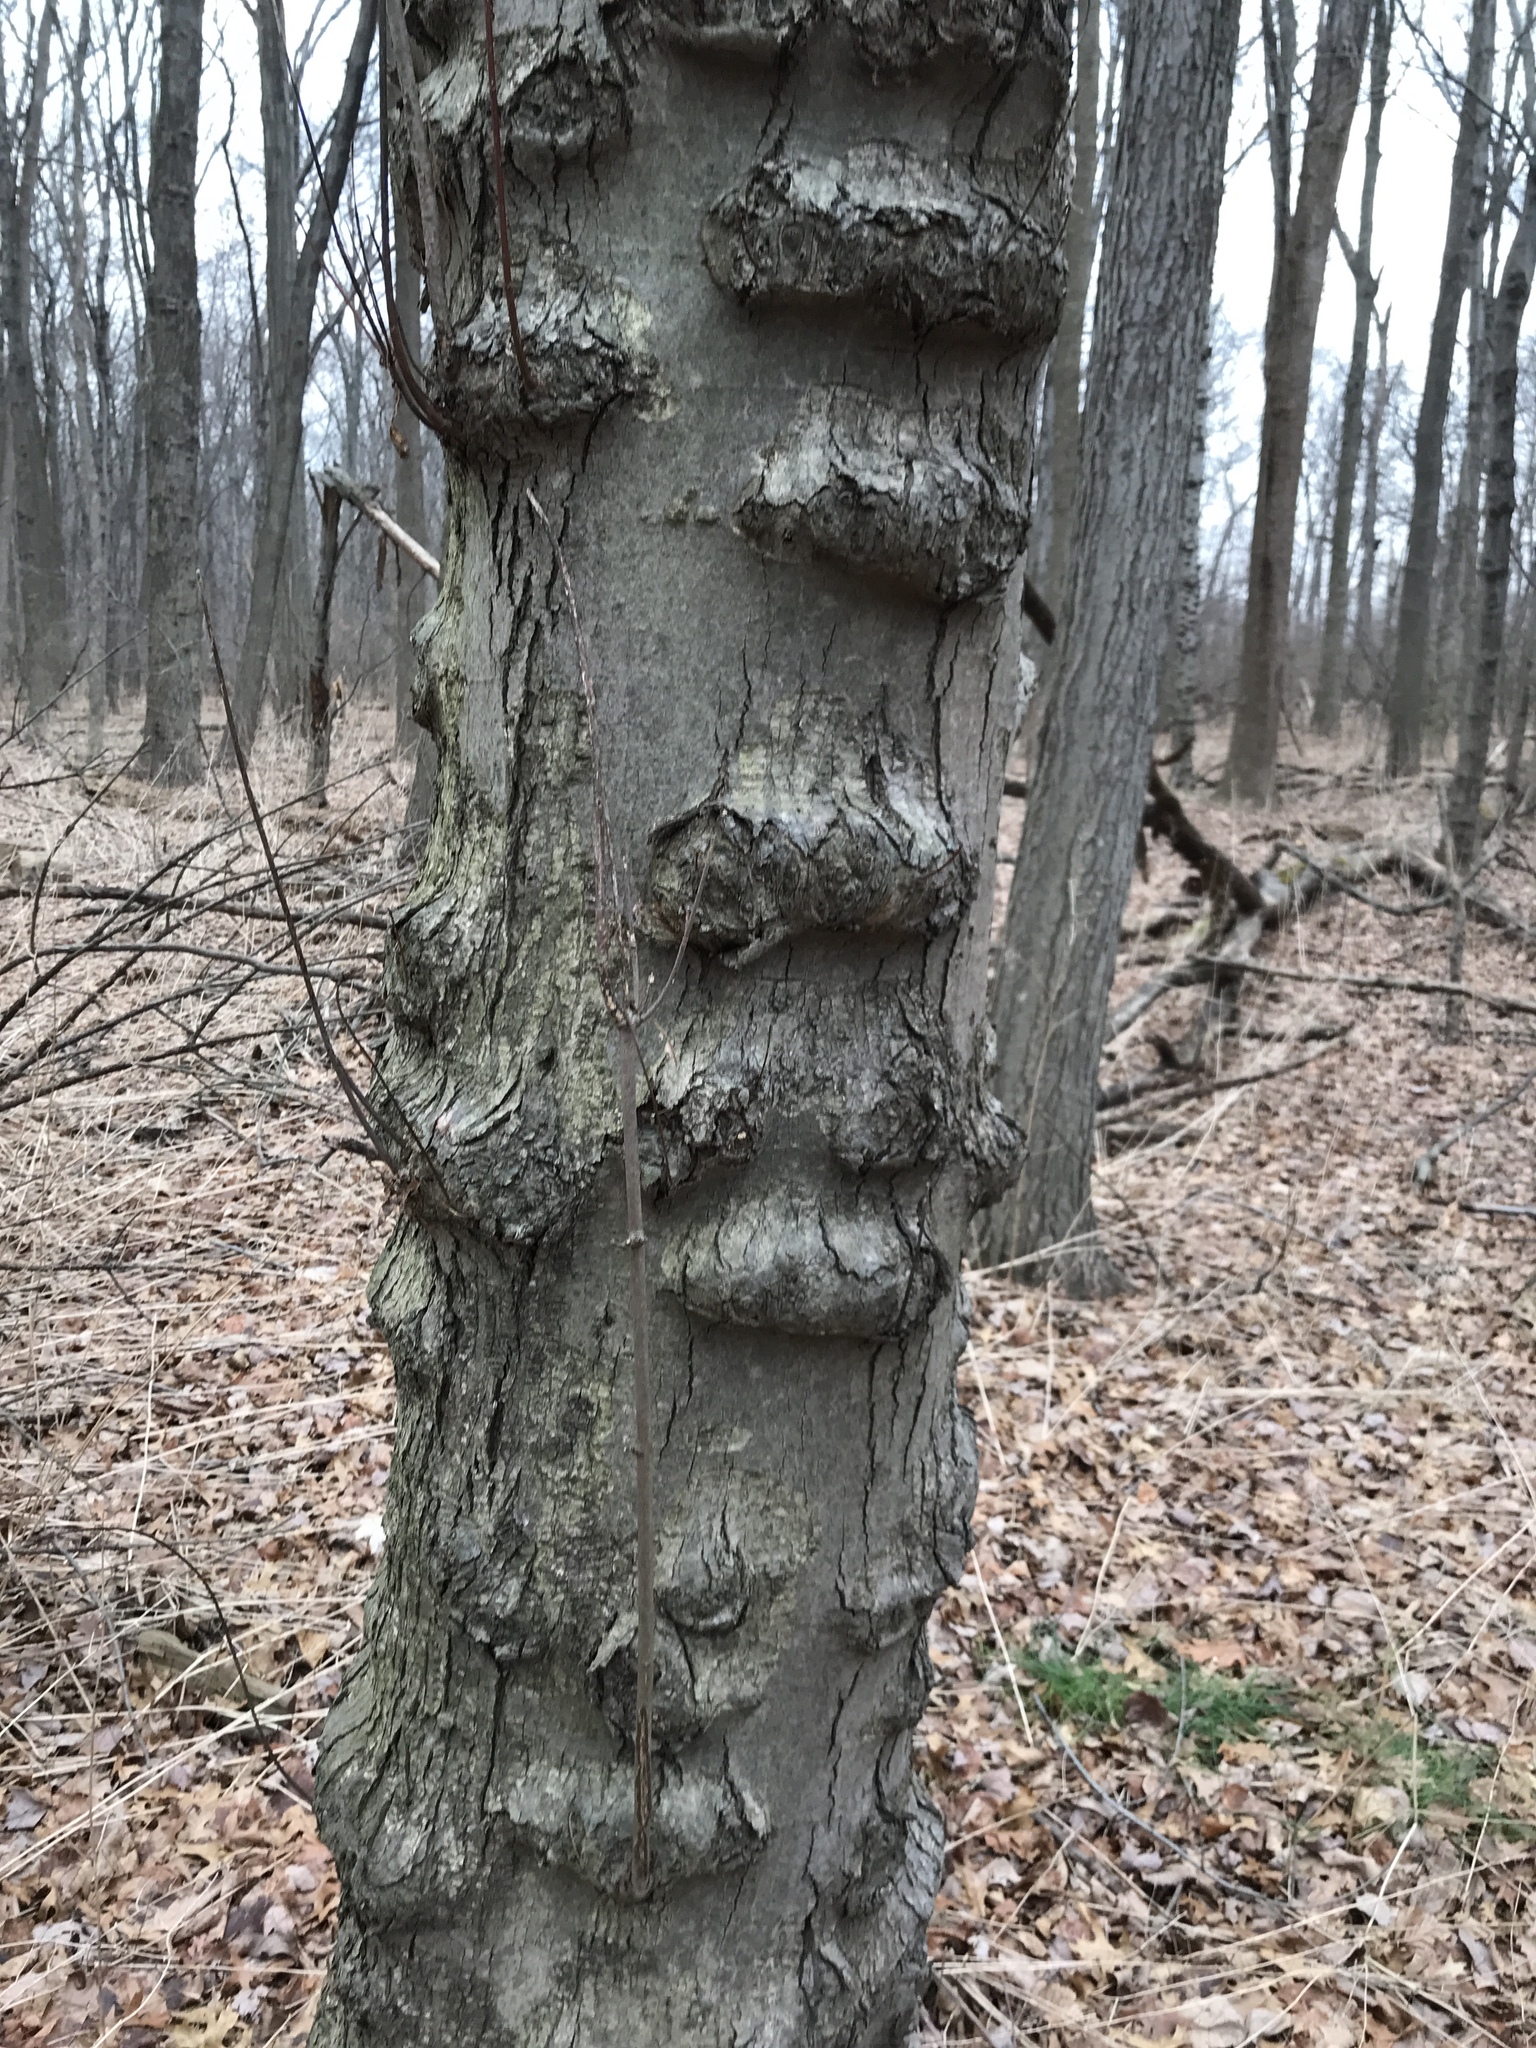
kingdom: Plantae
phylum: Tracheophyta
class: Magnoliopsida
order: Fagales
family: Fagaceae
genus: Fagus
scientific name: Fagus grandifolia
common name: American beech
